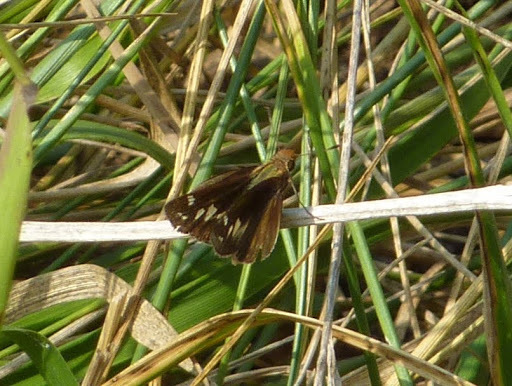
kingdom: Animalia
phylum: Arthropoda
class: Insecta
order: Lepidoptera
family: Hesperiidae
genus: Lon
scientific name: Lon zabulon
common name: Zabulon skipper
